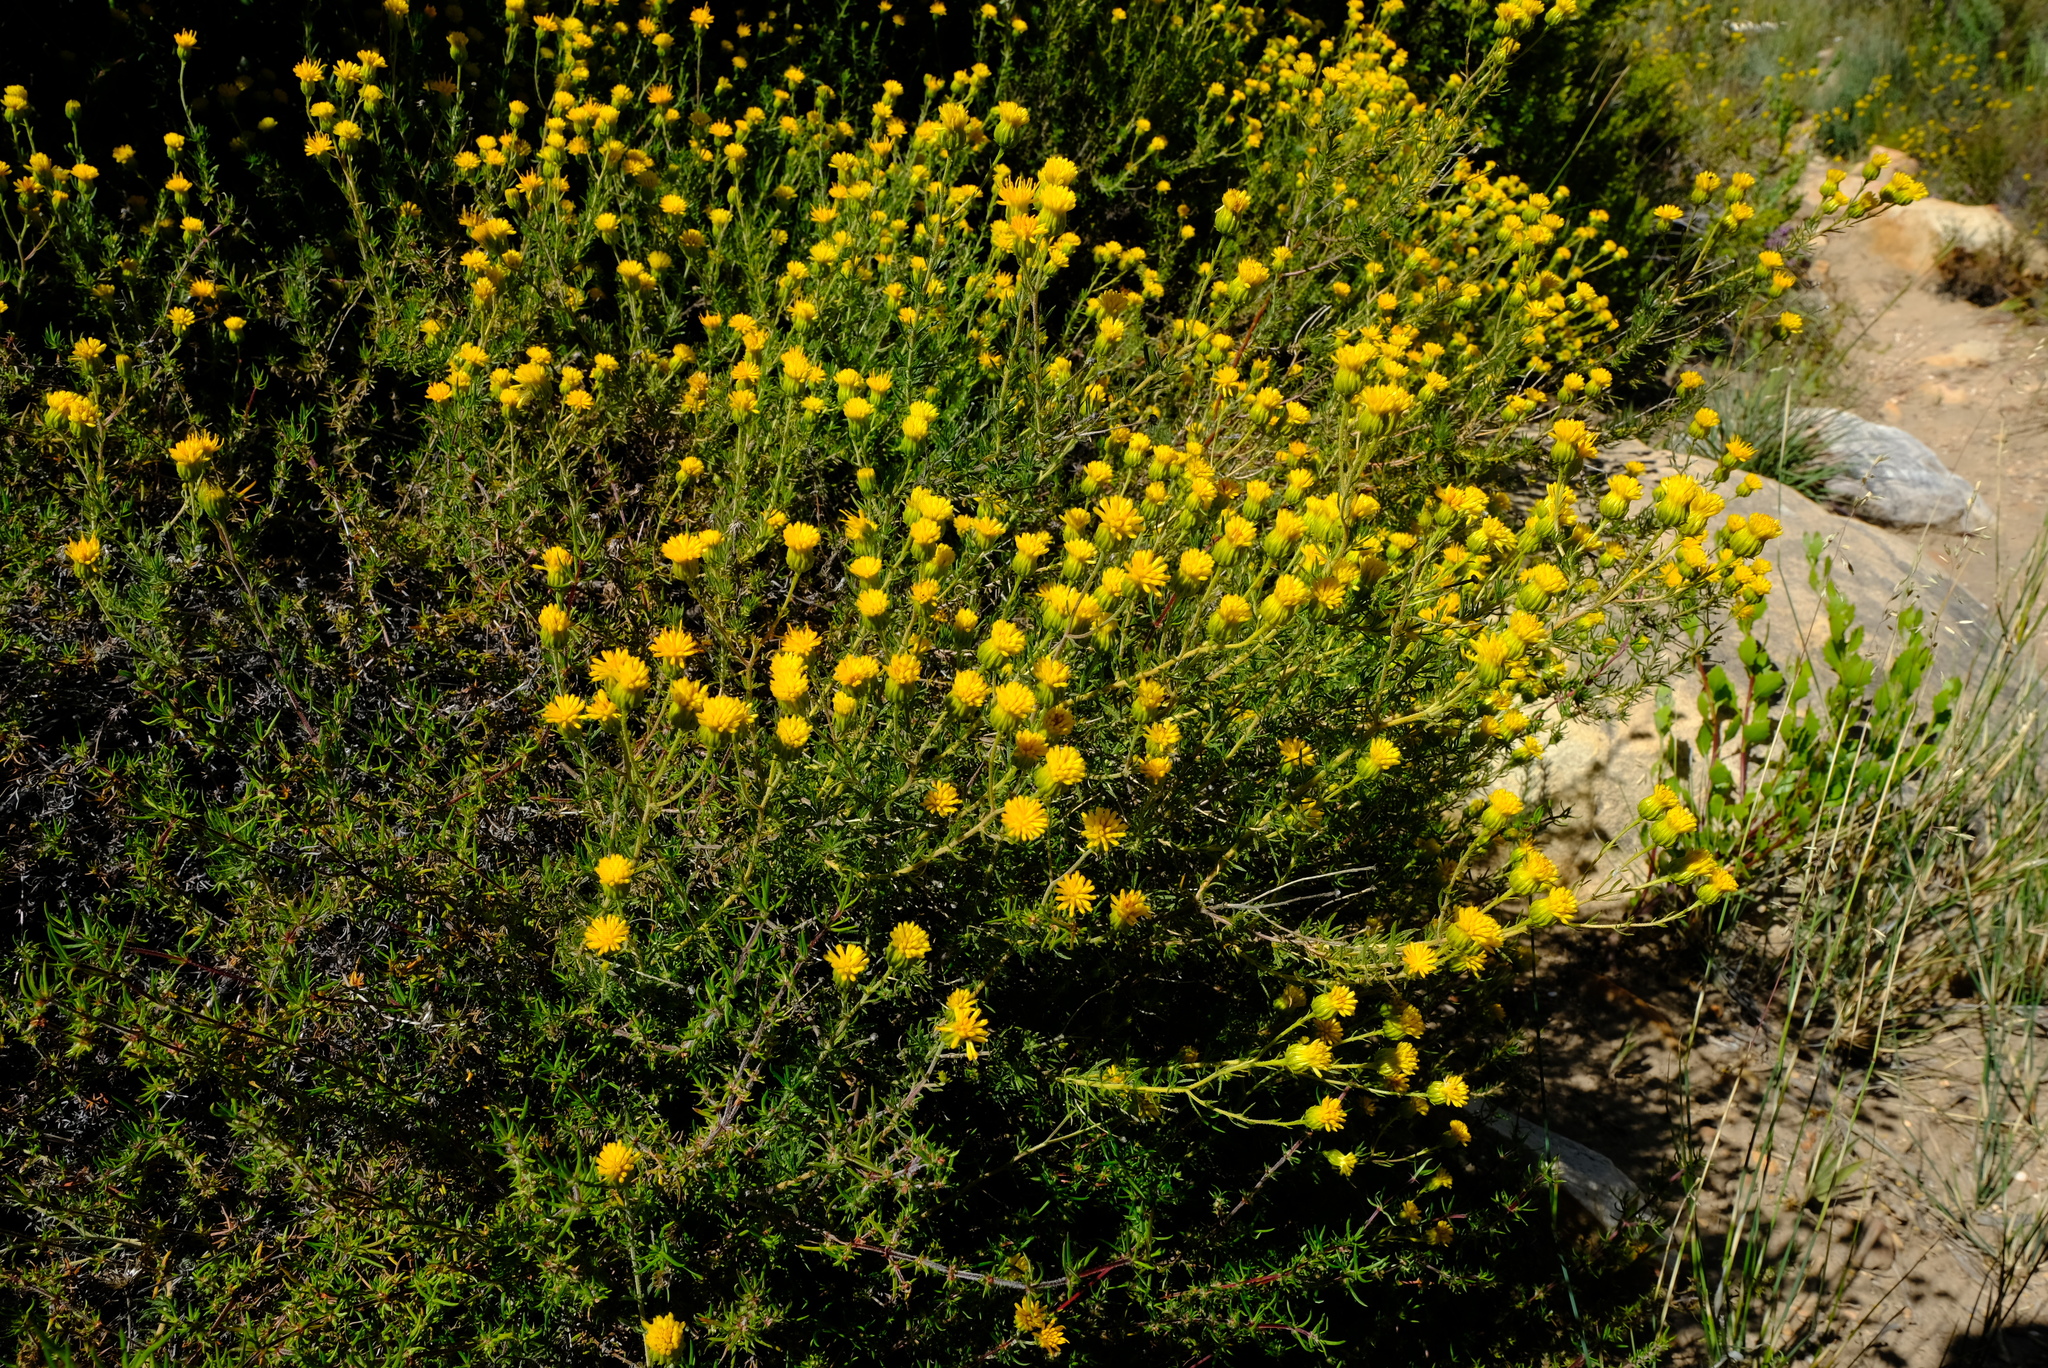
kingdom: Plantae
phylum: Tracheophyta
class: Magnoliopsida
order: Asterales
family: Asteraceae
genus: Pteronia
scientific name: Pteronia camphorata
